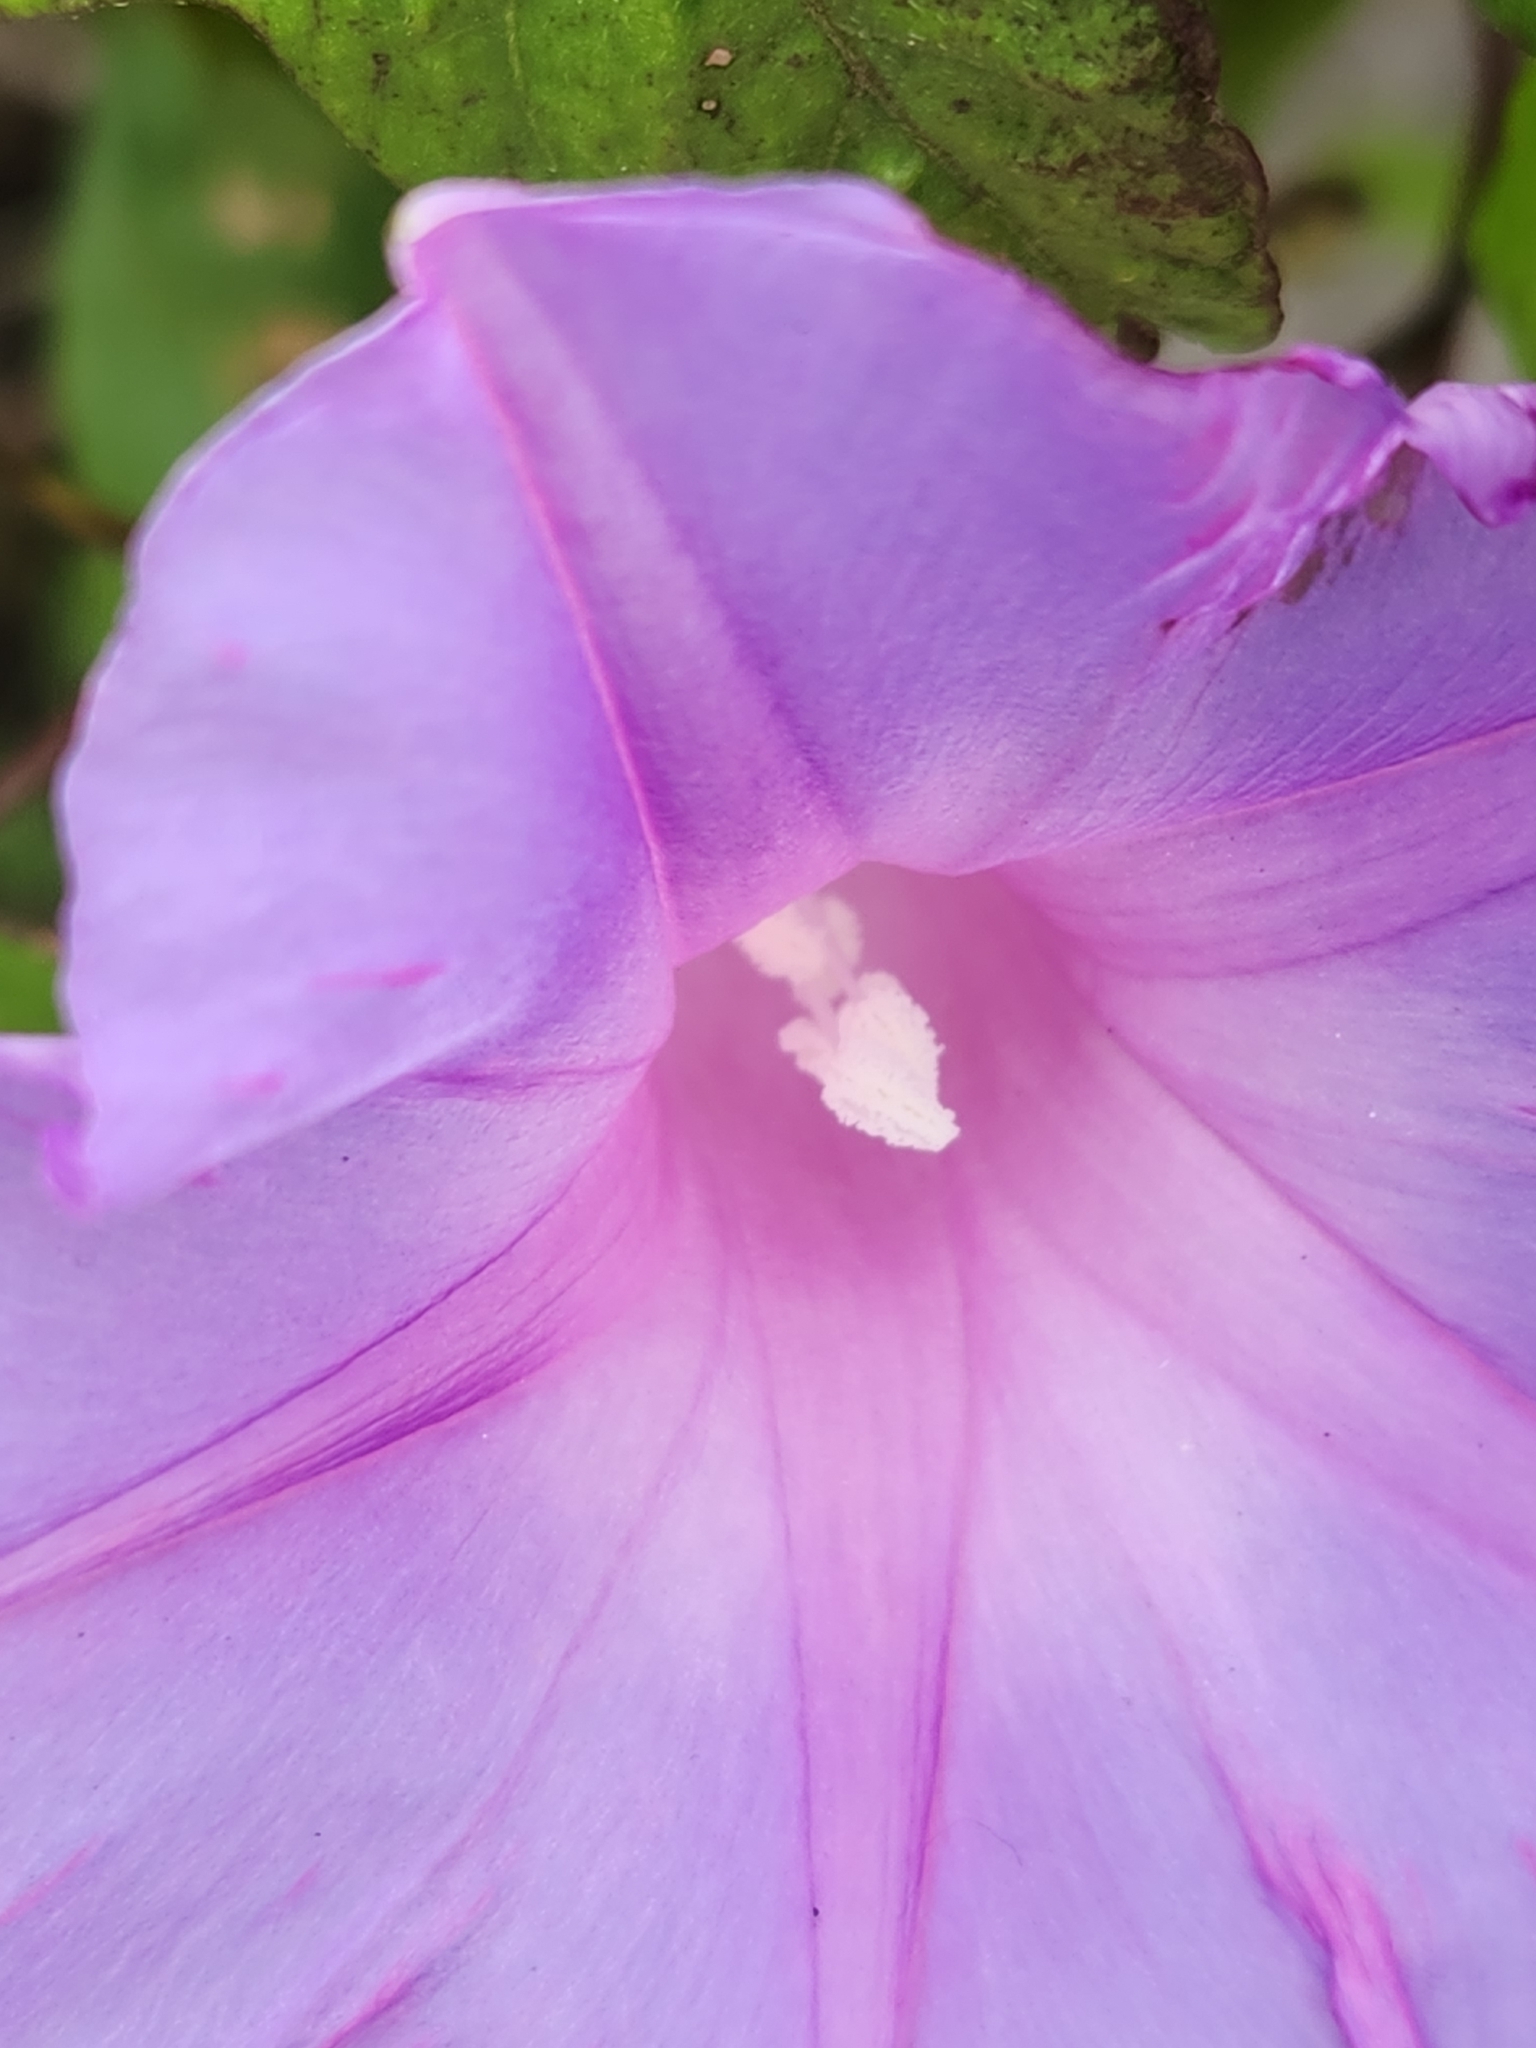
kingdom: Plantae
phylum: Tracheophyta
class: Magnoliopsida
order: Solanales
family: Convolvulaceae
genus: Ipomoea
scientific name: Ipomoea indica
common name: Blue dawnflower
